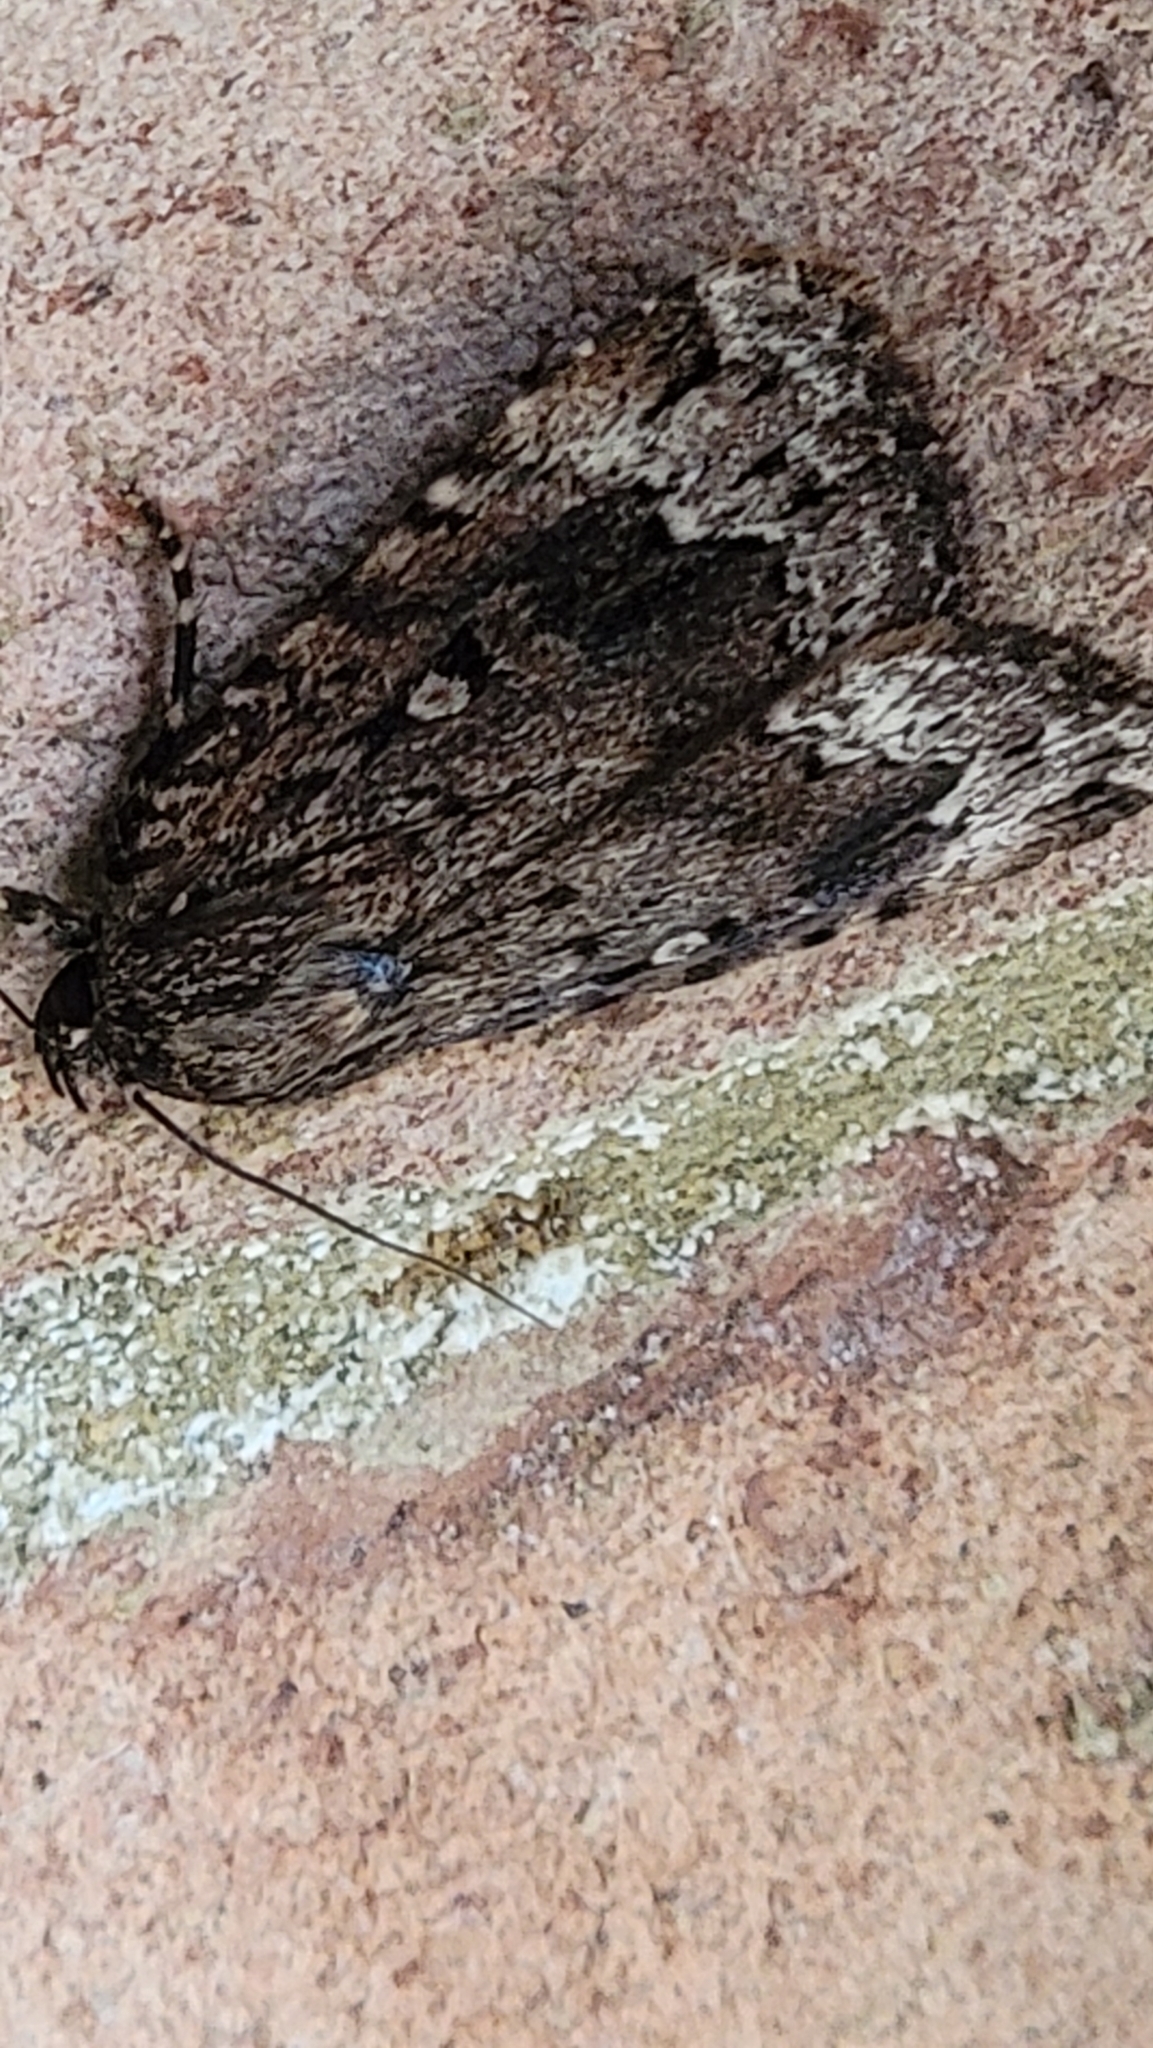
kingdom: Animalia
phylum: Arthropoda
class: Insecta
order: Lepidoptera
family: Noctuidae
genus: Amphipyra
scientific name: Amphipyra pyramidoides
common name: American copper underwing
